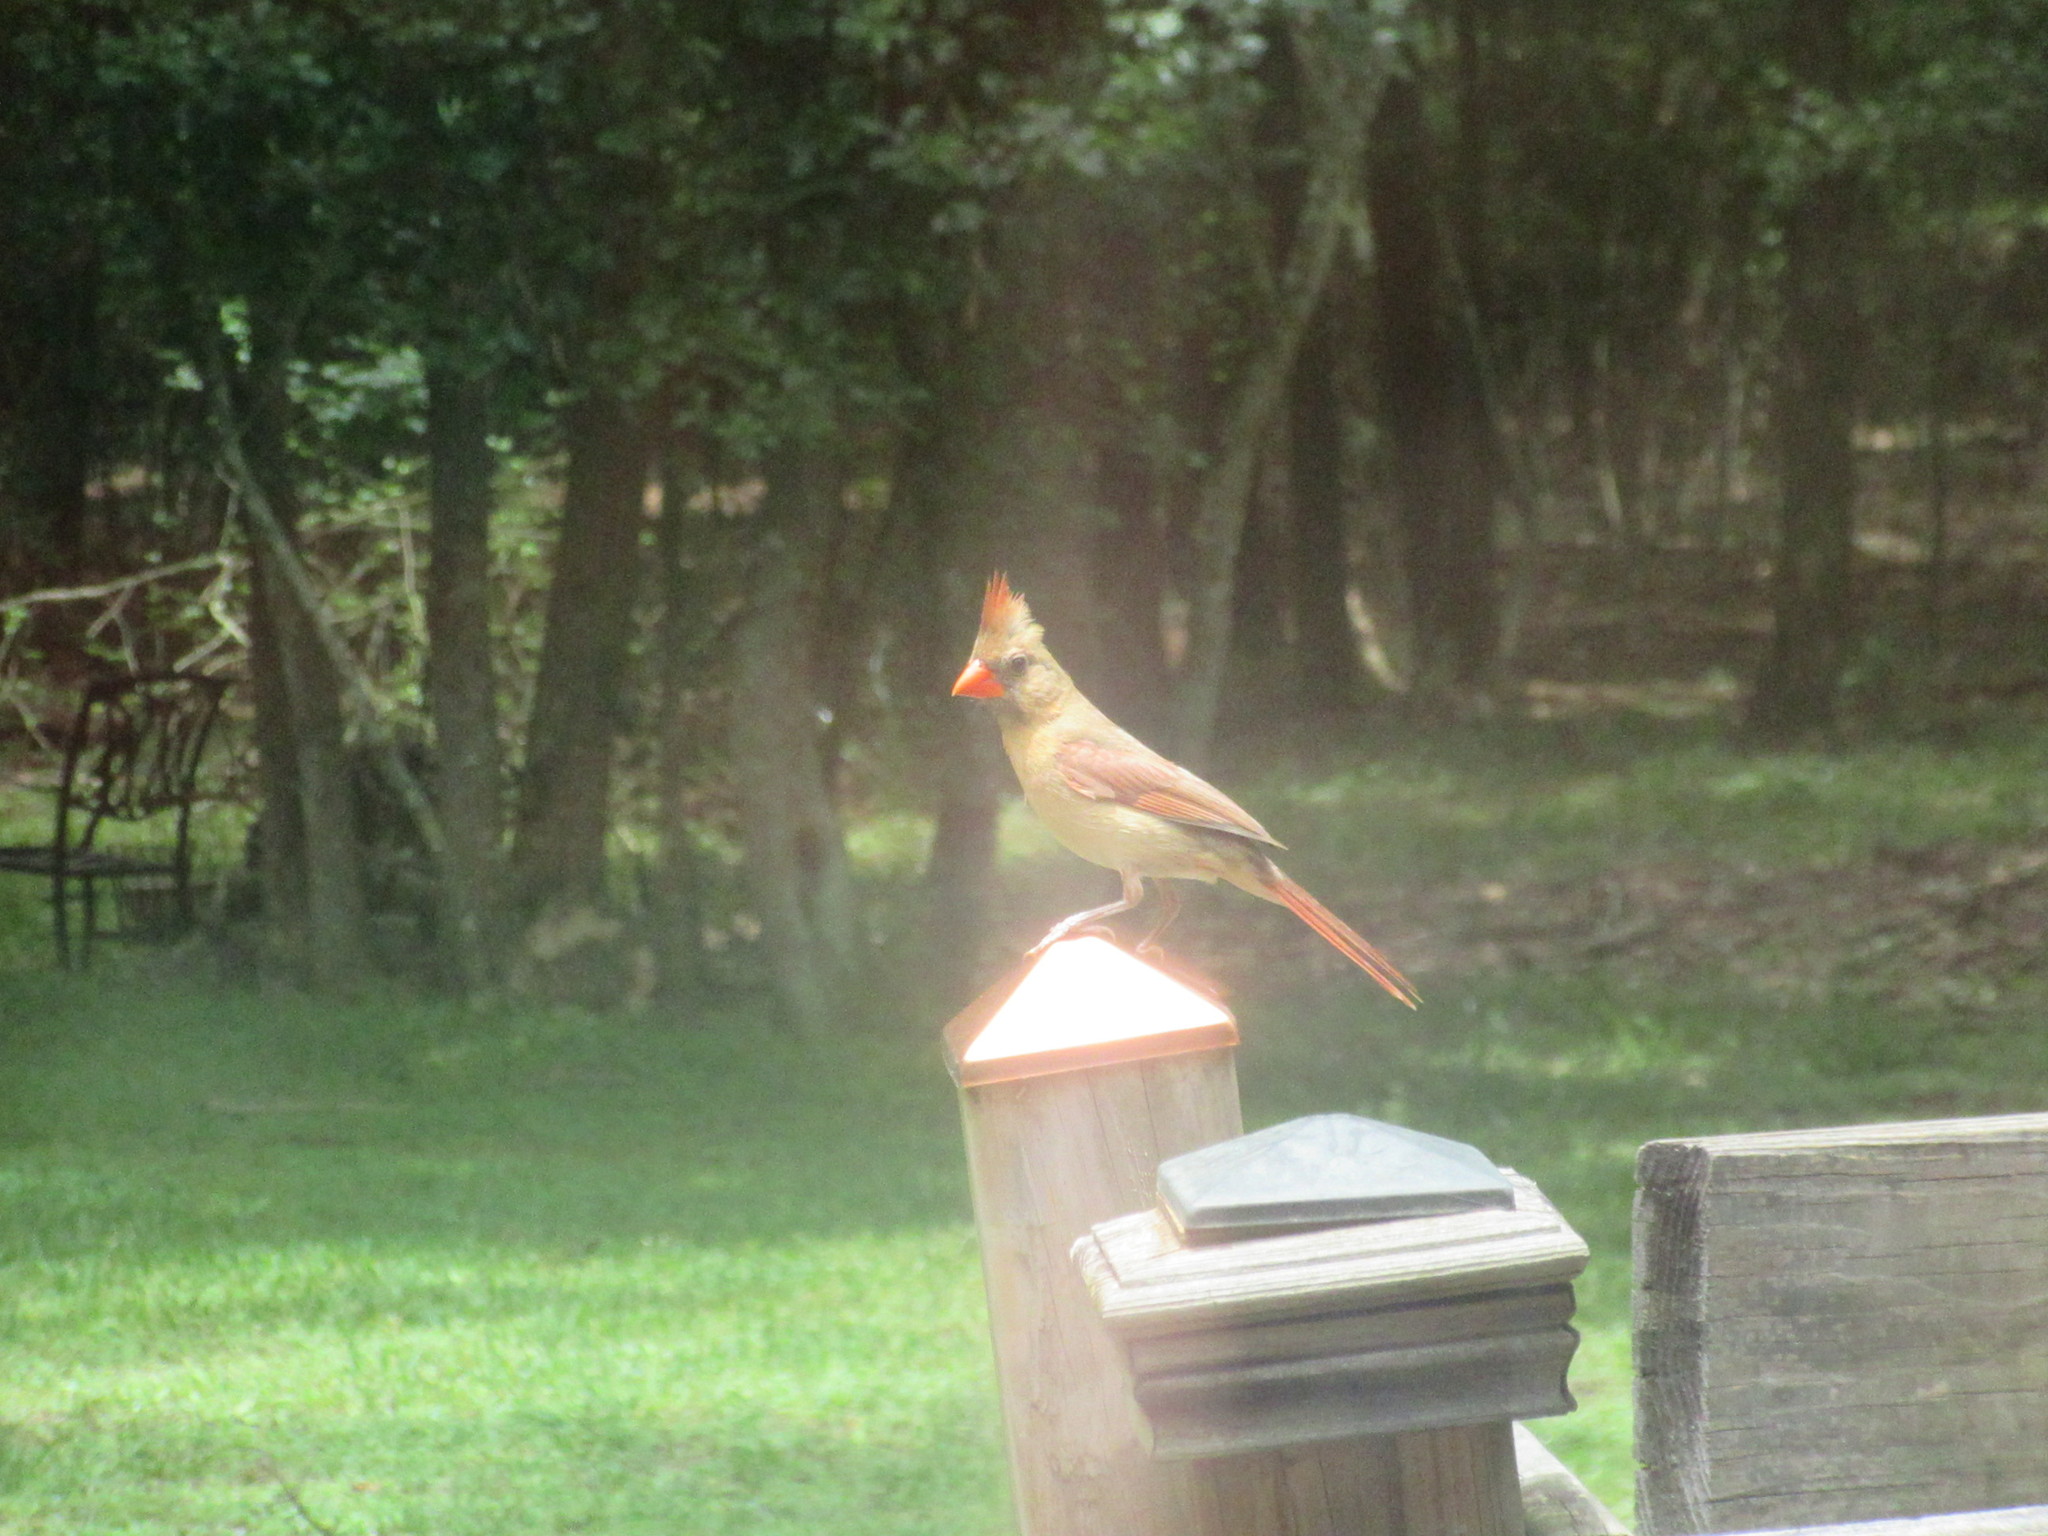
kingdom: Animalia
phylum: Chordata
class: Aves
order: Passeriformes
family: Cardinalidae
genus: Cardinalis
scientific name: Cardinalis cardinalis
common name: Northern cardinal
